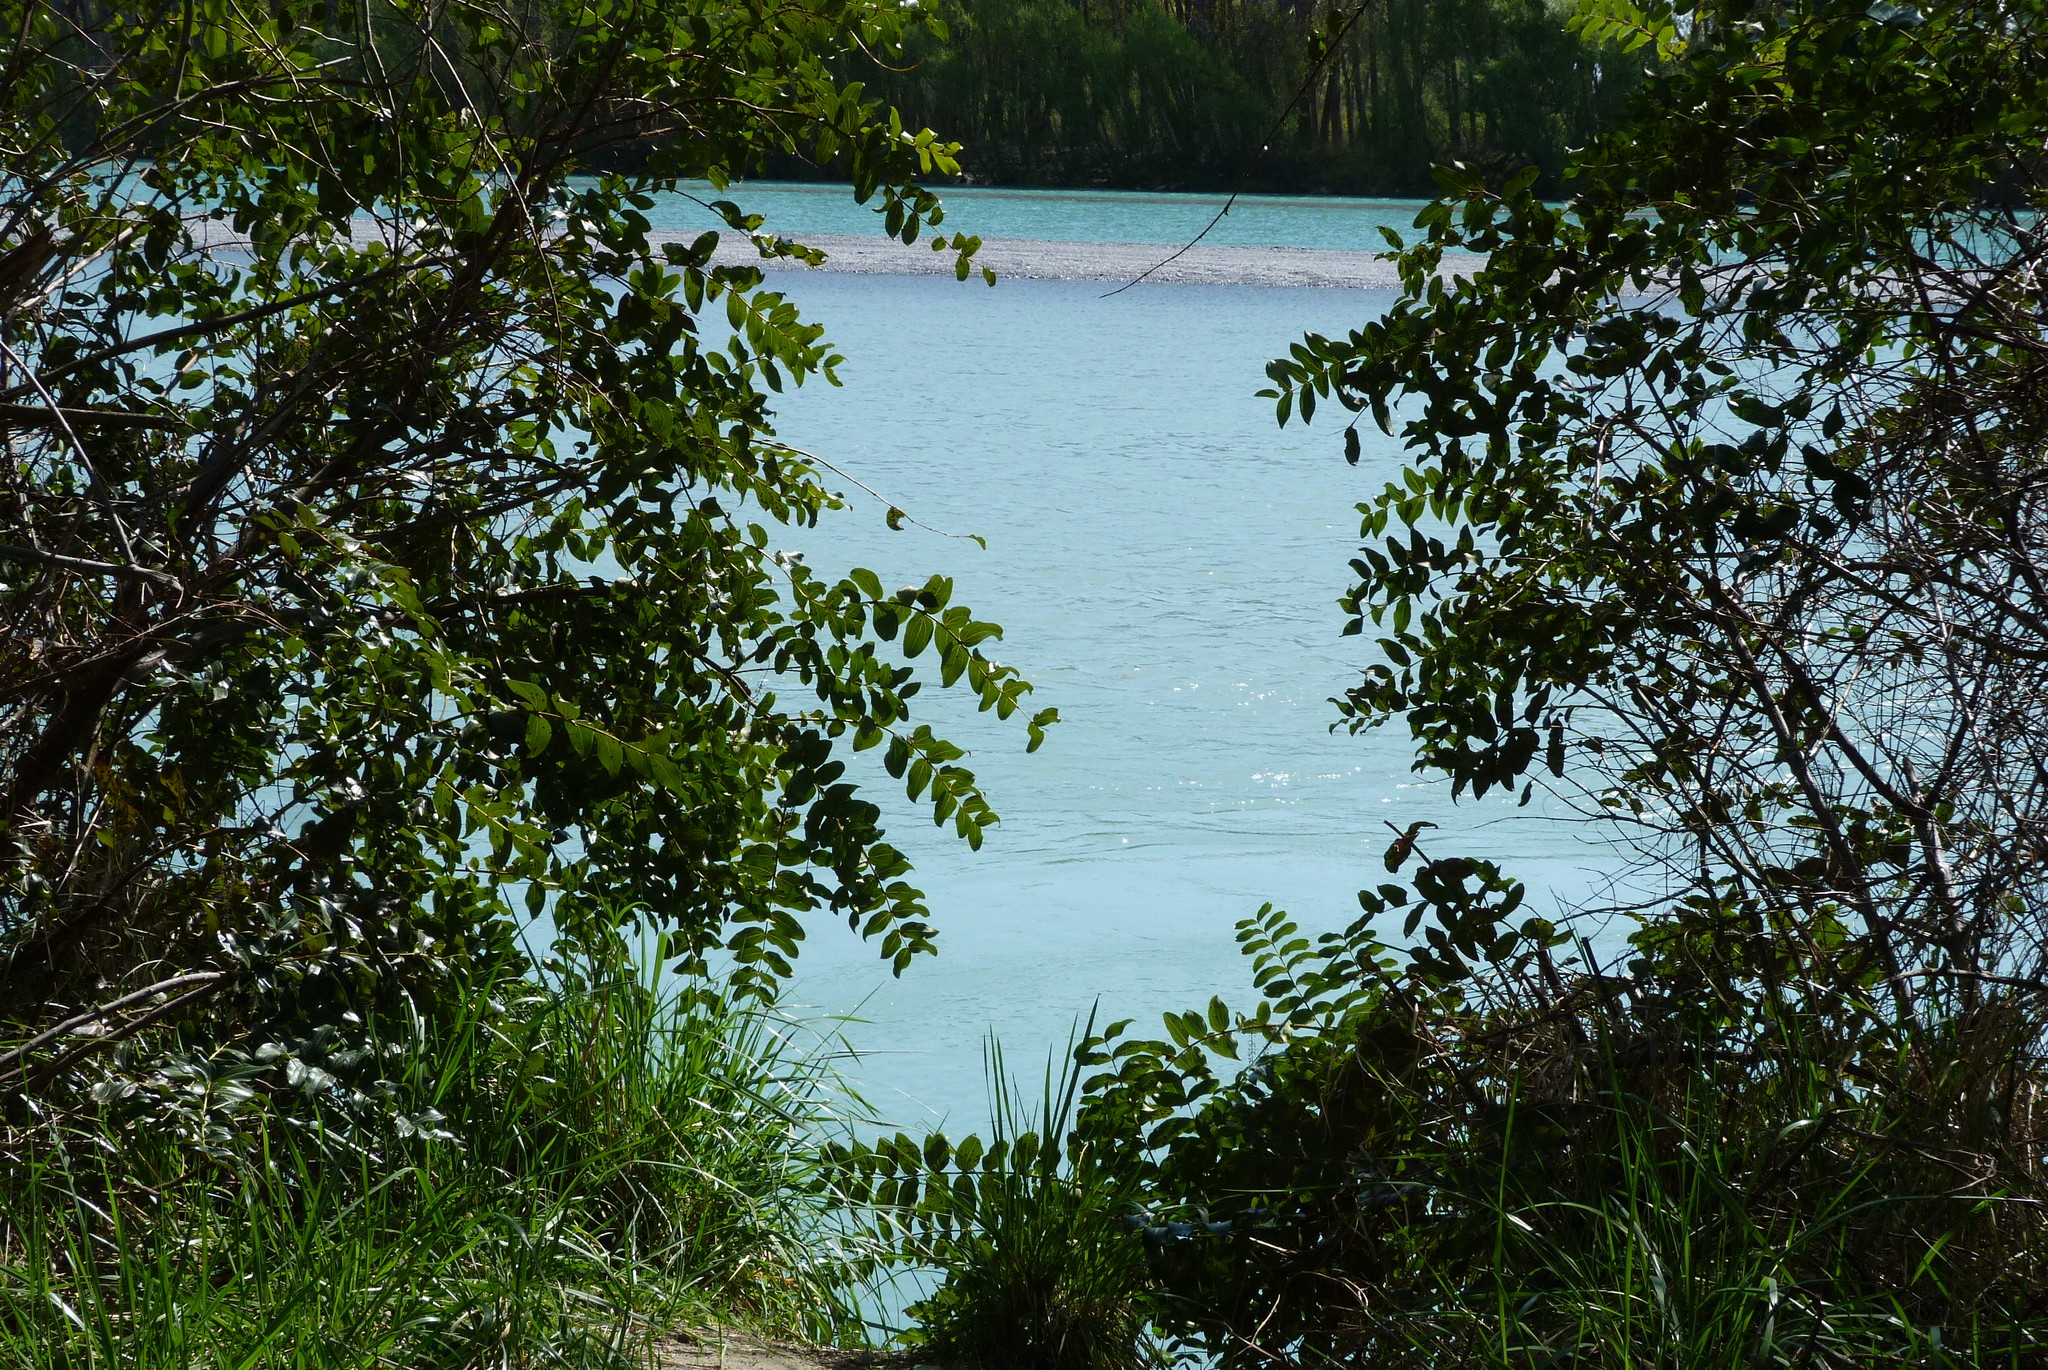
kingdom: Plantae
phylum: Tracheophyta
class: Magnoliopsida
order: Cucurbitales
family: Coriariaceae
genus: Coriaria
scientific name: Coriaria arborea
